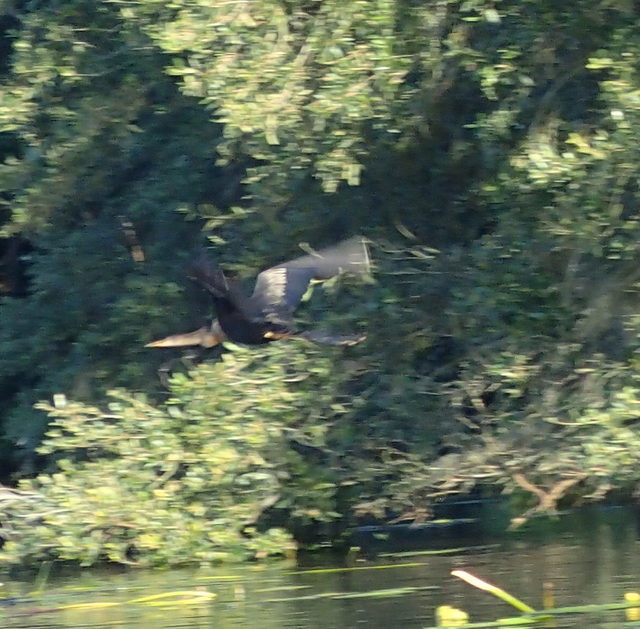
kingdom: Animalia
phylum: Chordata
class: Aves
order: Suliformes
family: Anhingidae
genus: Anhinga
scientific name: Anhinga anhinga
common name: Anhinga
